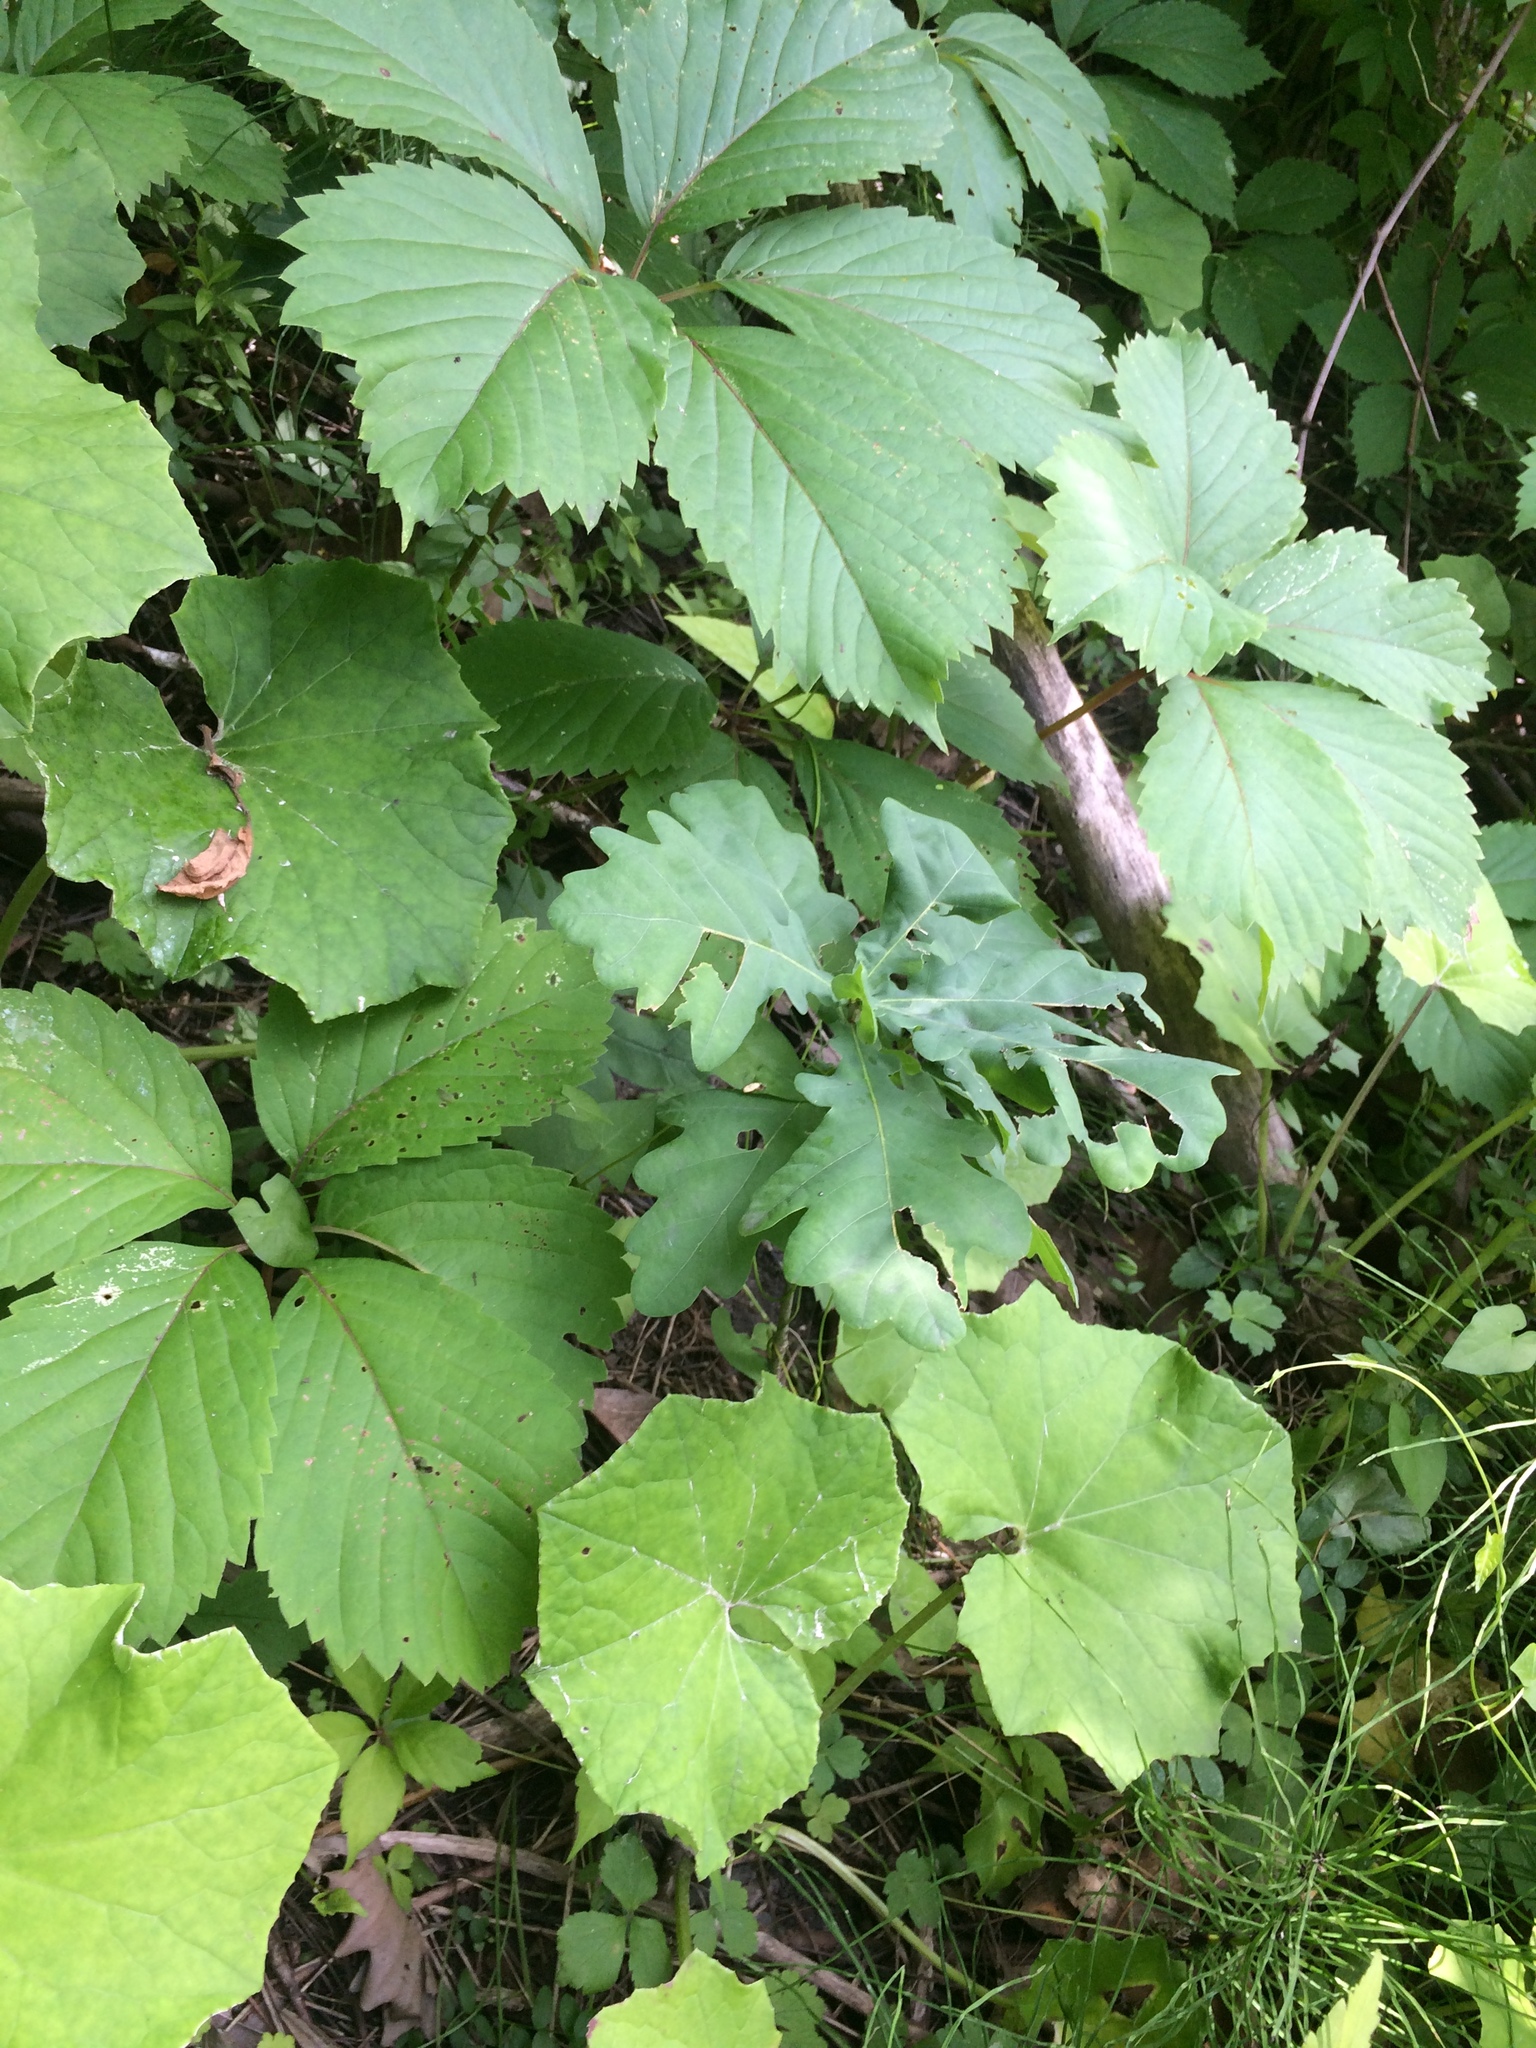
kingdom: Plantae
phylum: Tracheophyta
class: Magnoliopsida
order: Asterales
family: Asteraceae
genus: Tussilago
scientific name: Tussilago farfara
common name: Coltsfoot
